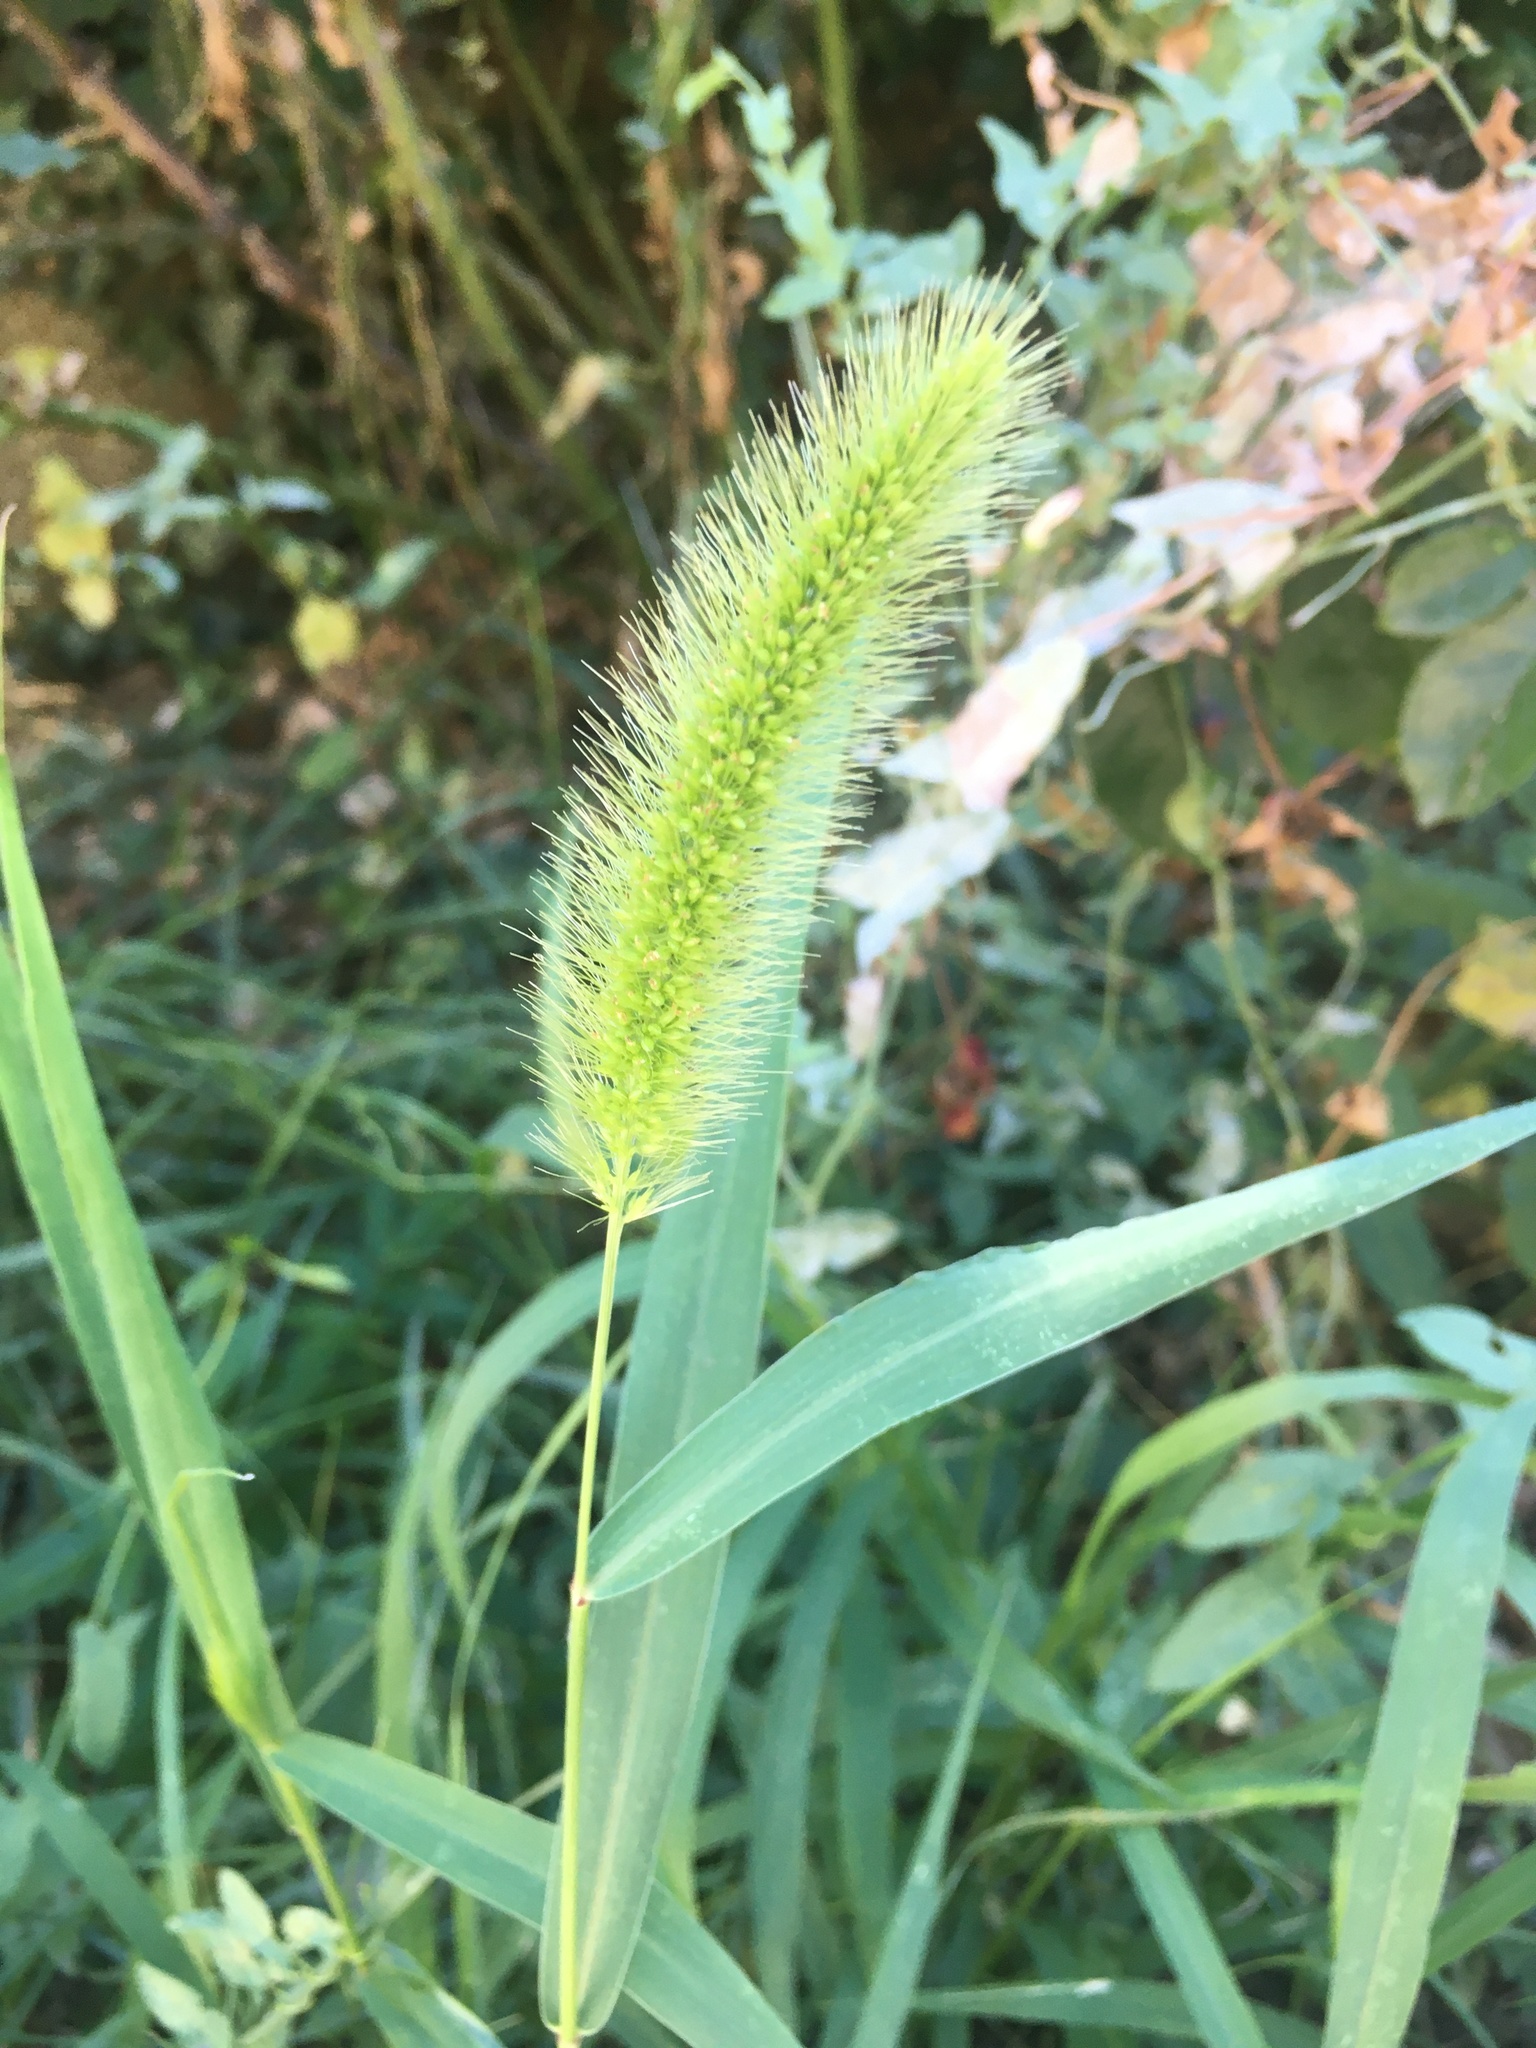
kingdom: Plantae
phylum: Tracheophyta
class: Liliopsida
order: Poales
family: Poaceae
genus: Setaria
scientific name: Setaria viridis
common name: Green bristlegrass
